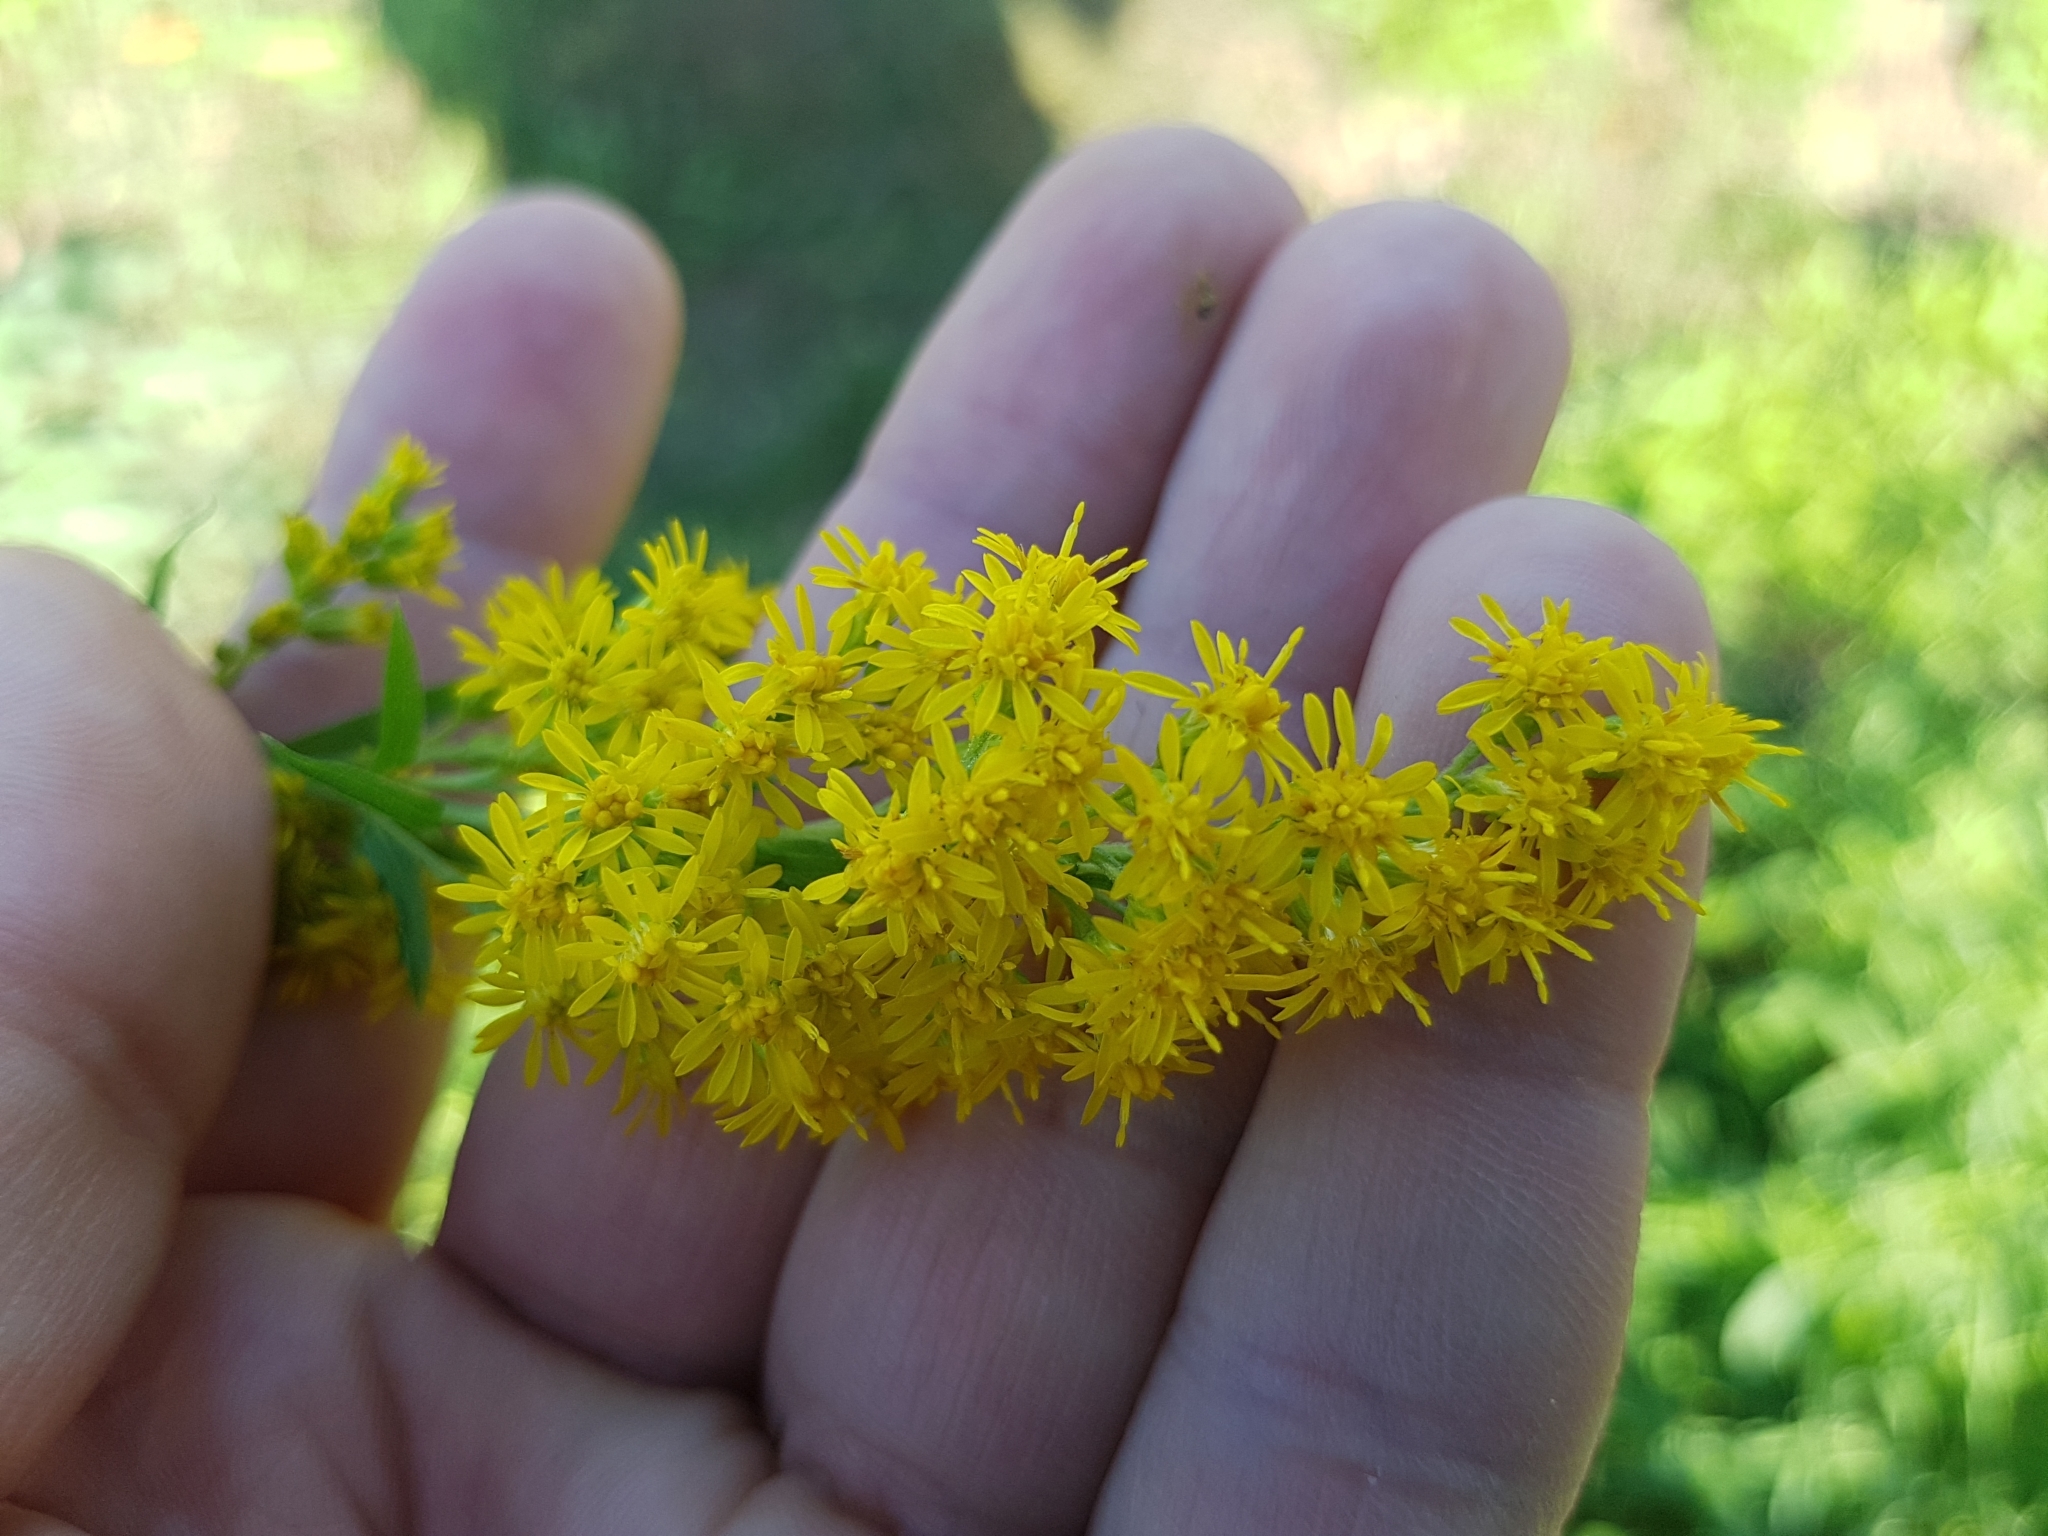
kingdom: Plantae
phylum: Tracheophyta
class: Magnoliopsida
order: Asterales
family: Asteraceae
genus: Solidago
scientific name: Solidago canadensis
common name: Canada goldenrod
